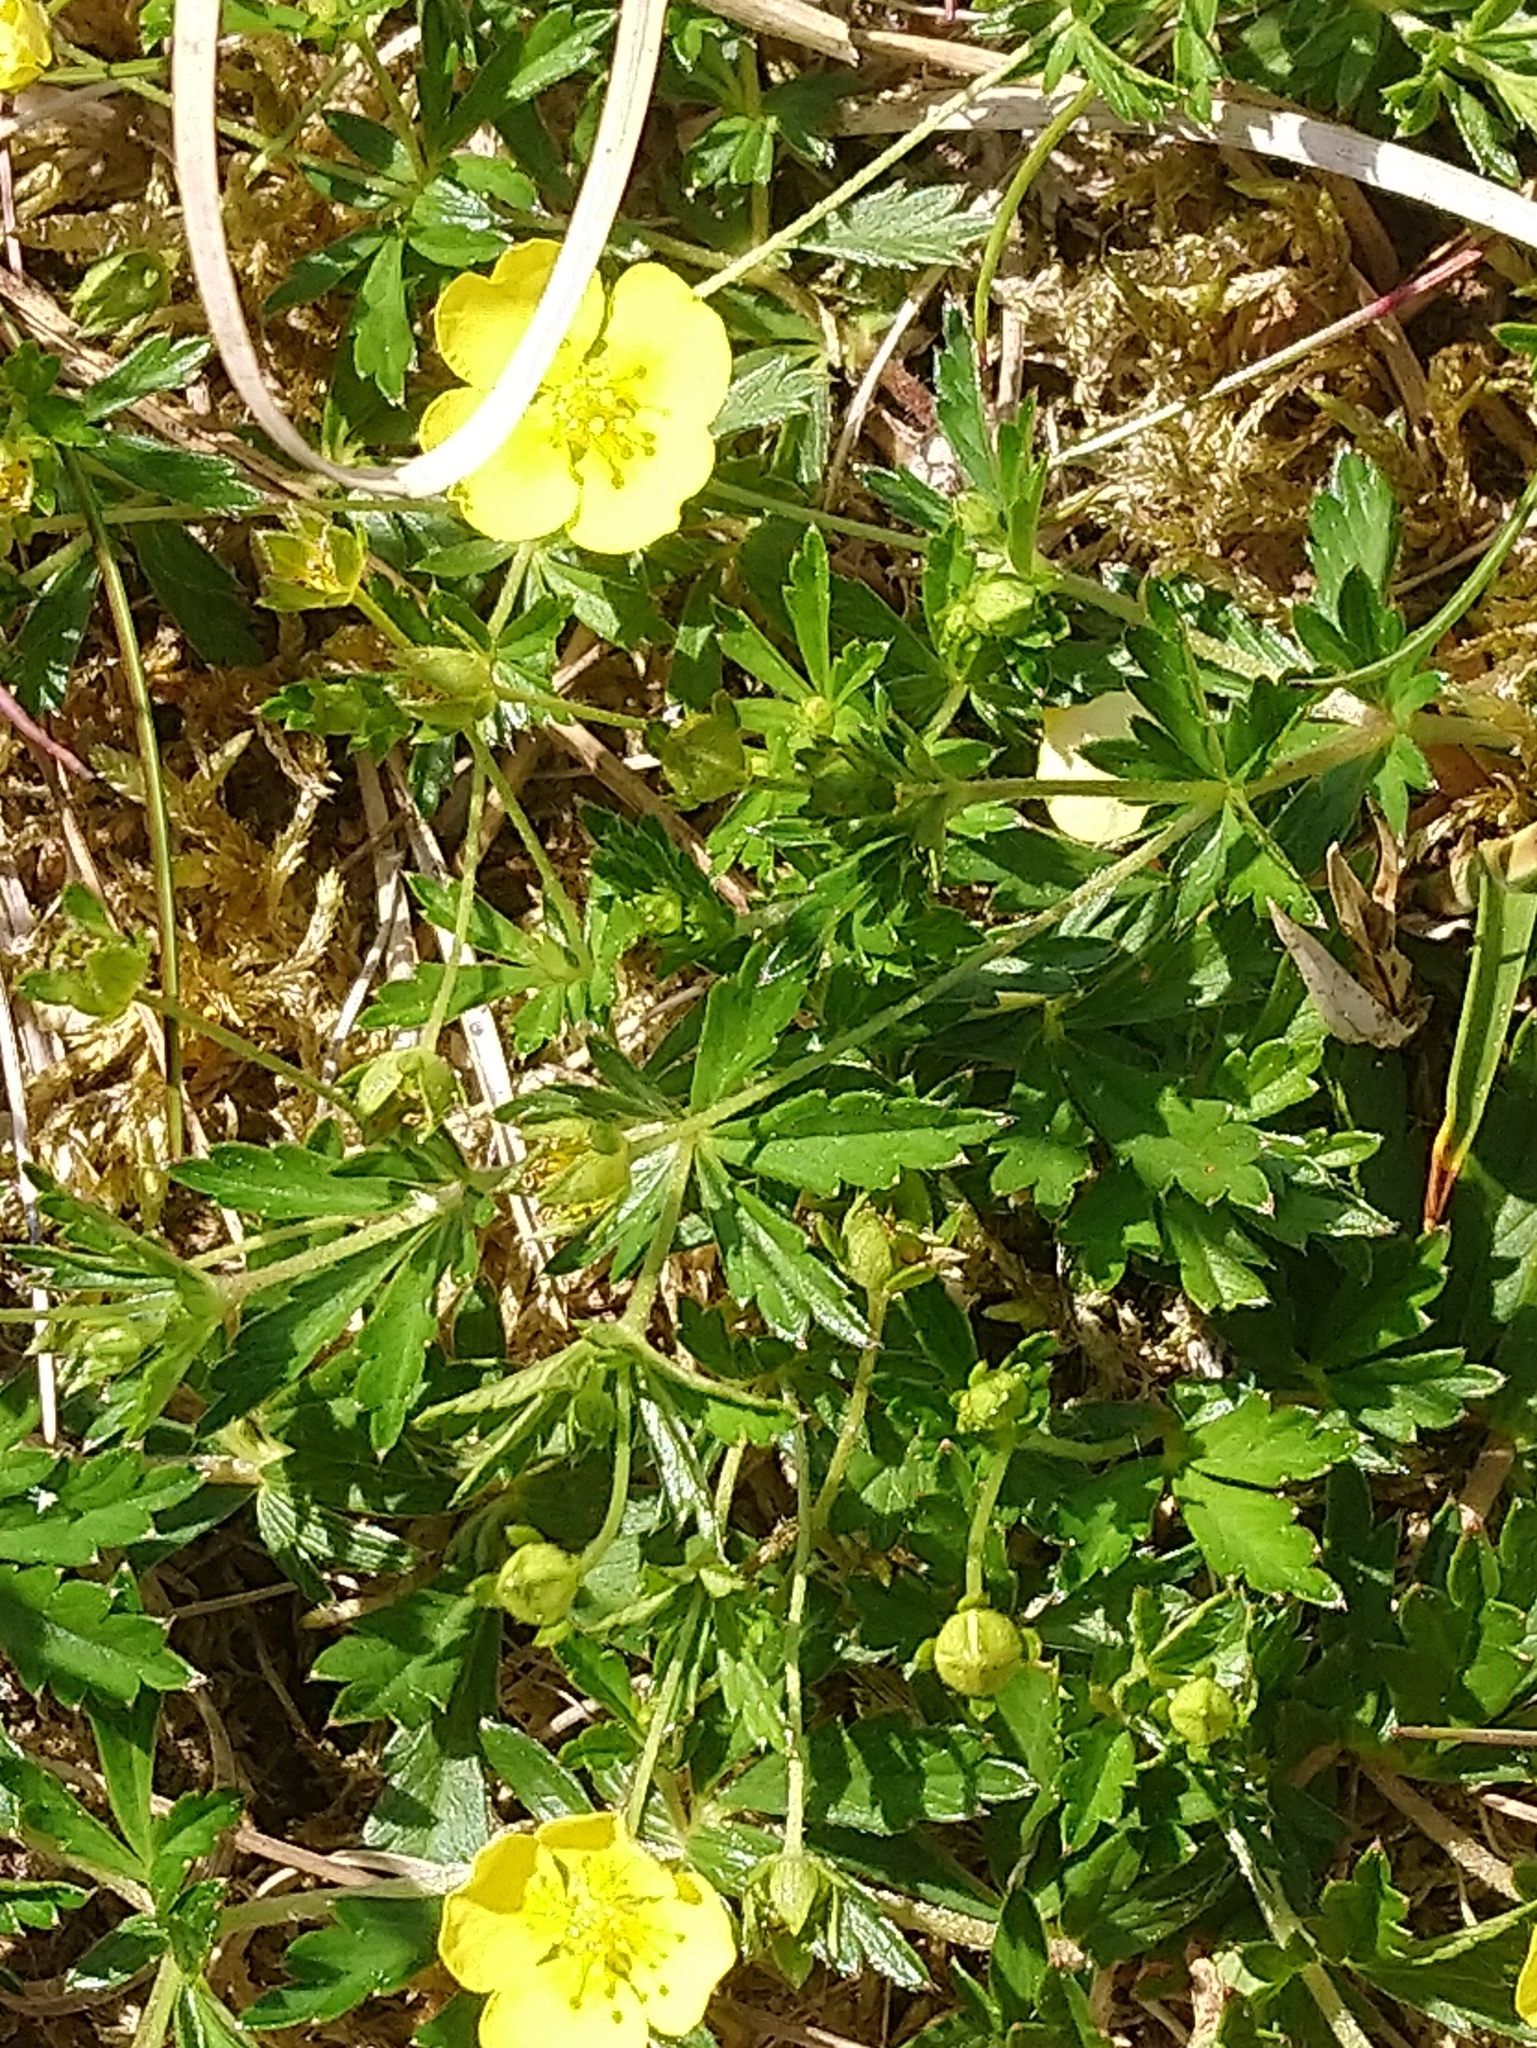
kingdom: Plantae
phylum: Tracheophyta
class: Magnoliopsida
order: Rosales
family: Rosaceae
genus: Potentilla
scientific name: Potentilla erecta
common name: Tormentil
